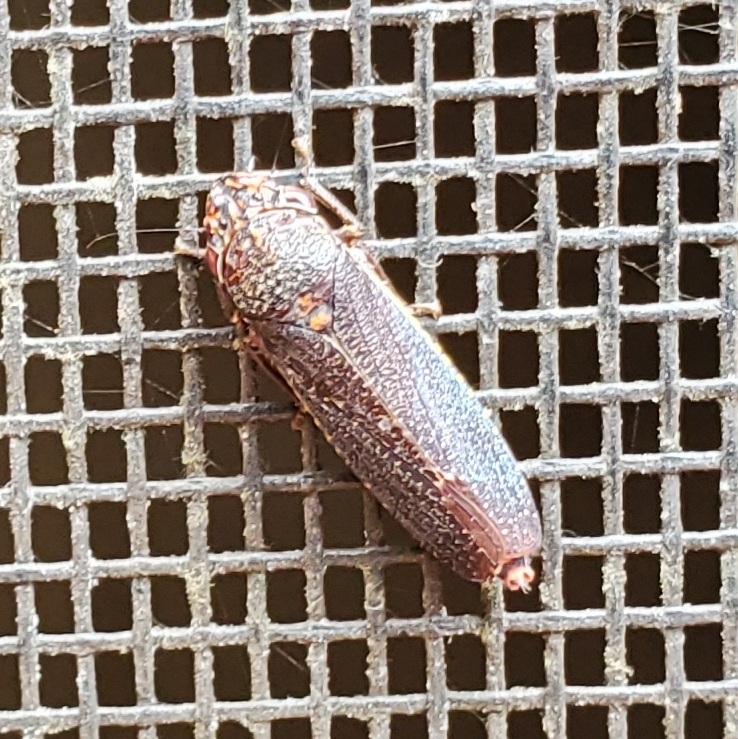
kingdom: Animalia
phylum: Arthropoda
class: Insecta
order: Hemiptera
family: Cicadellidae
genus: Paraulacizes
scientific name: Paraulacizes irrorata
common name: Speckled sharpshooter
